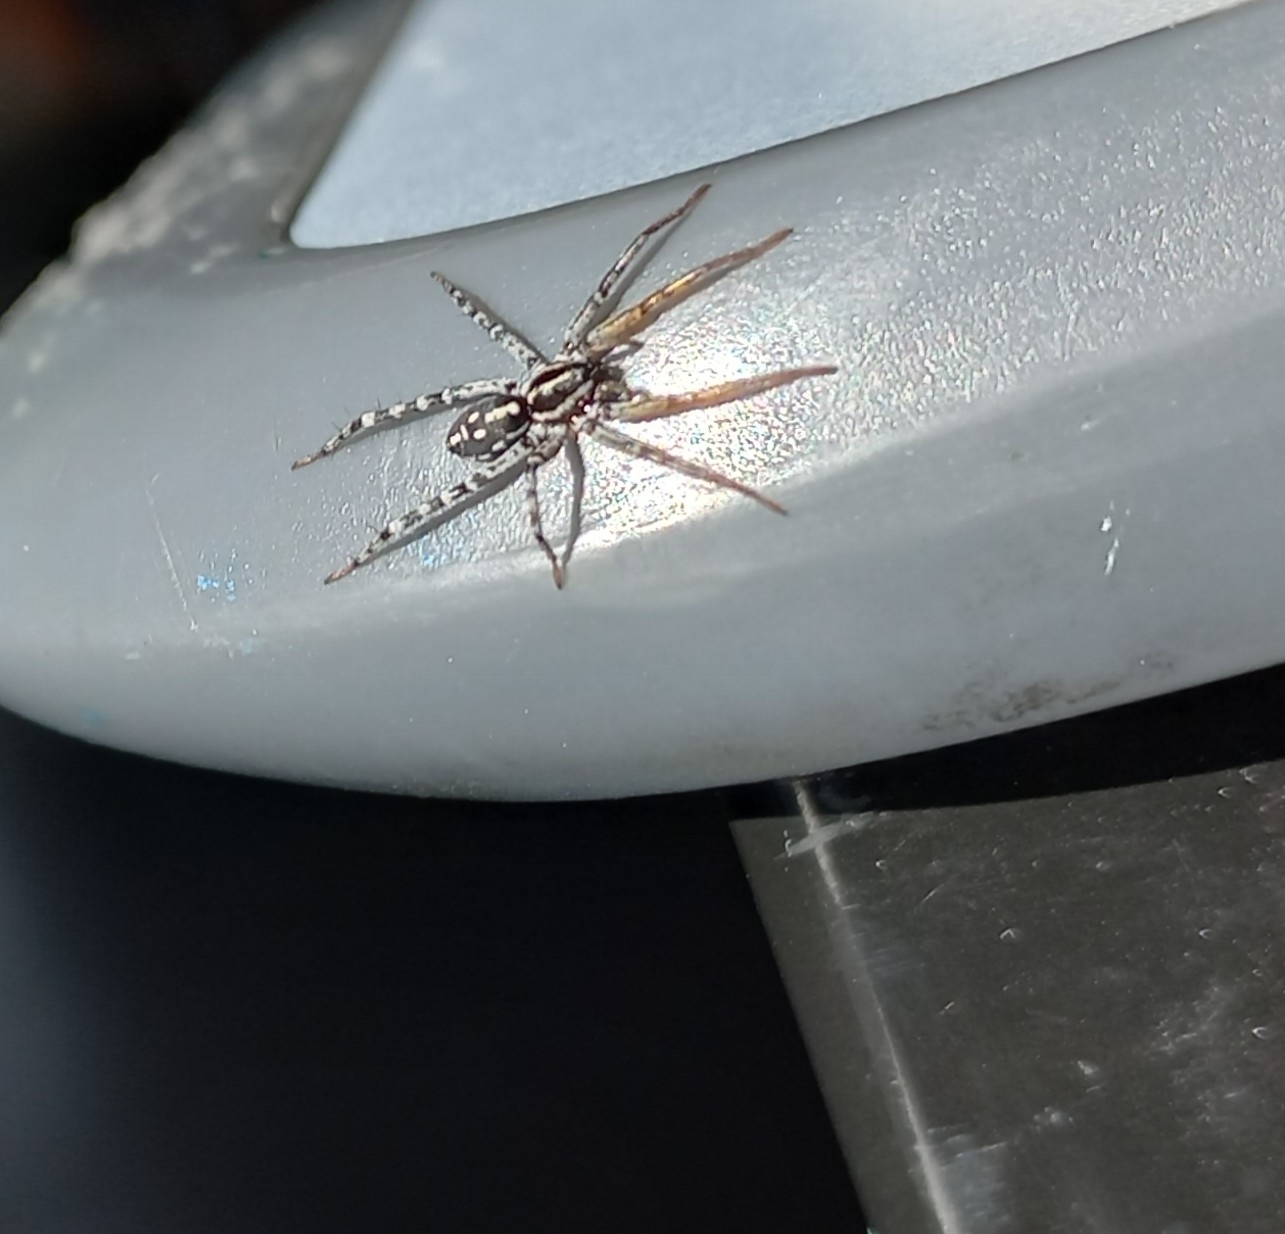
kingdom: Animalia
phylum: Arthropoda
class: Arachnida
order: Araneae
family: Corinnidae
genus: Nyssus
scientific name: Nyssus coloripes
